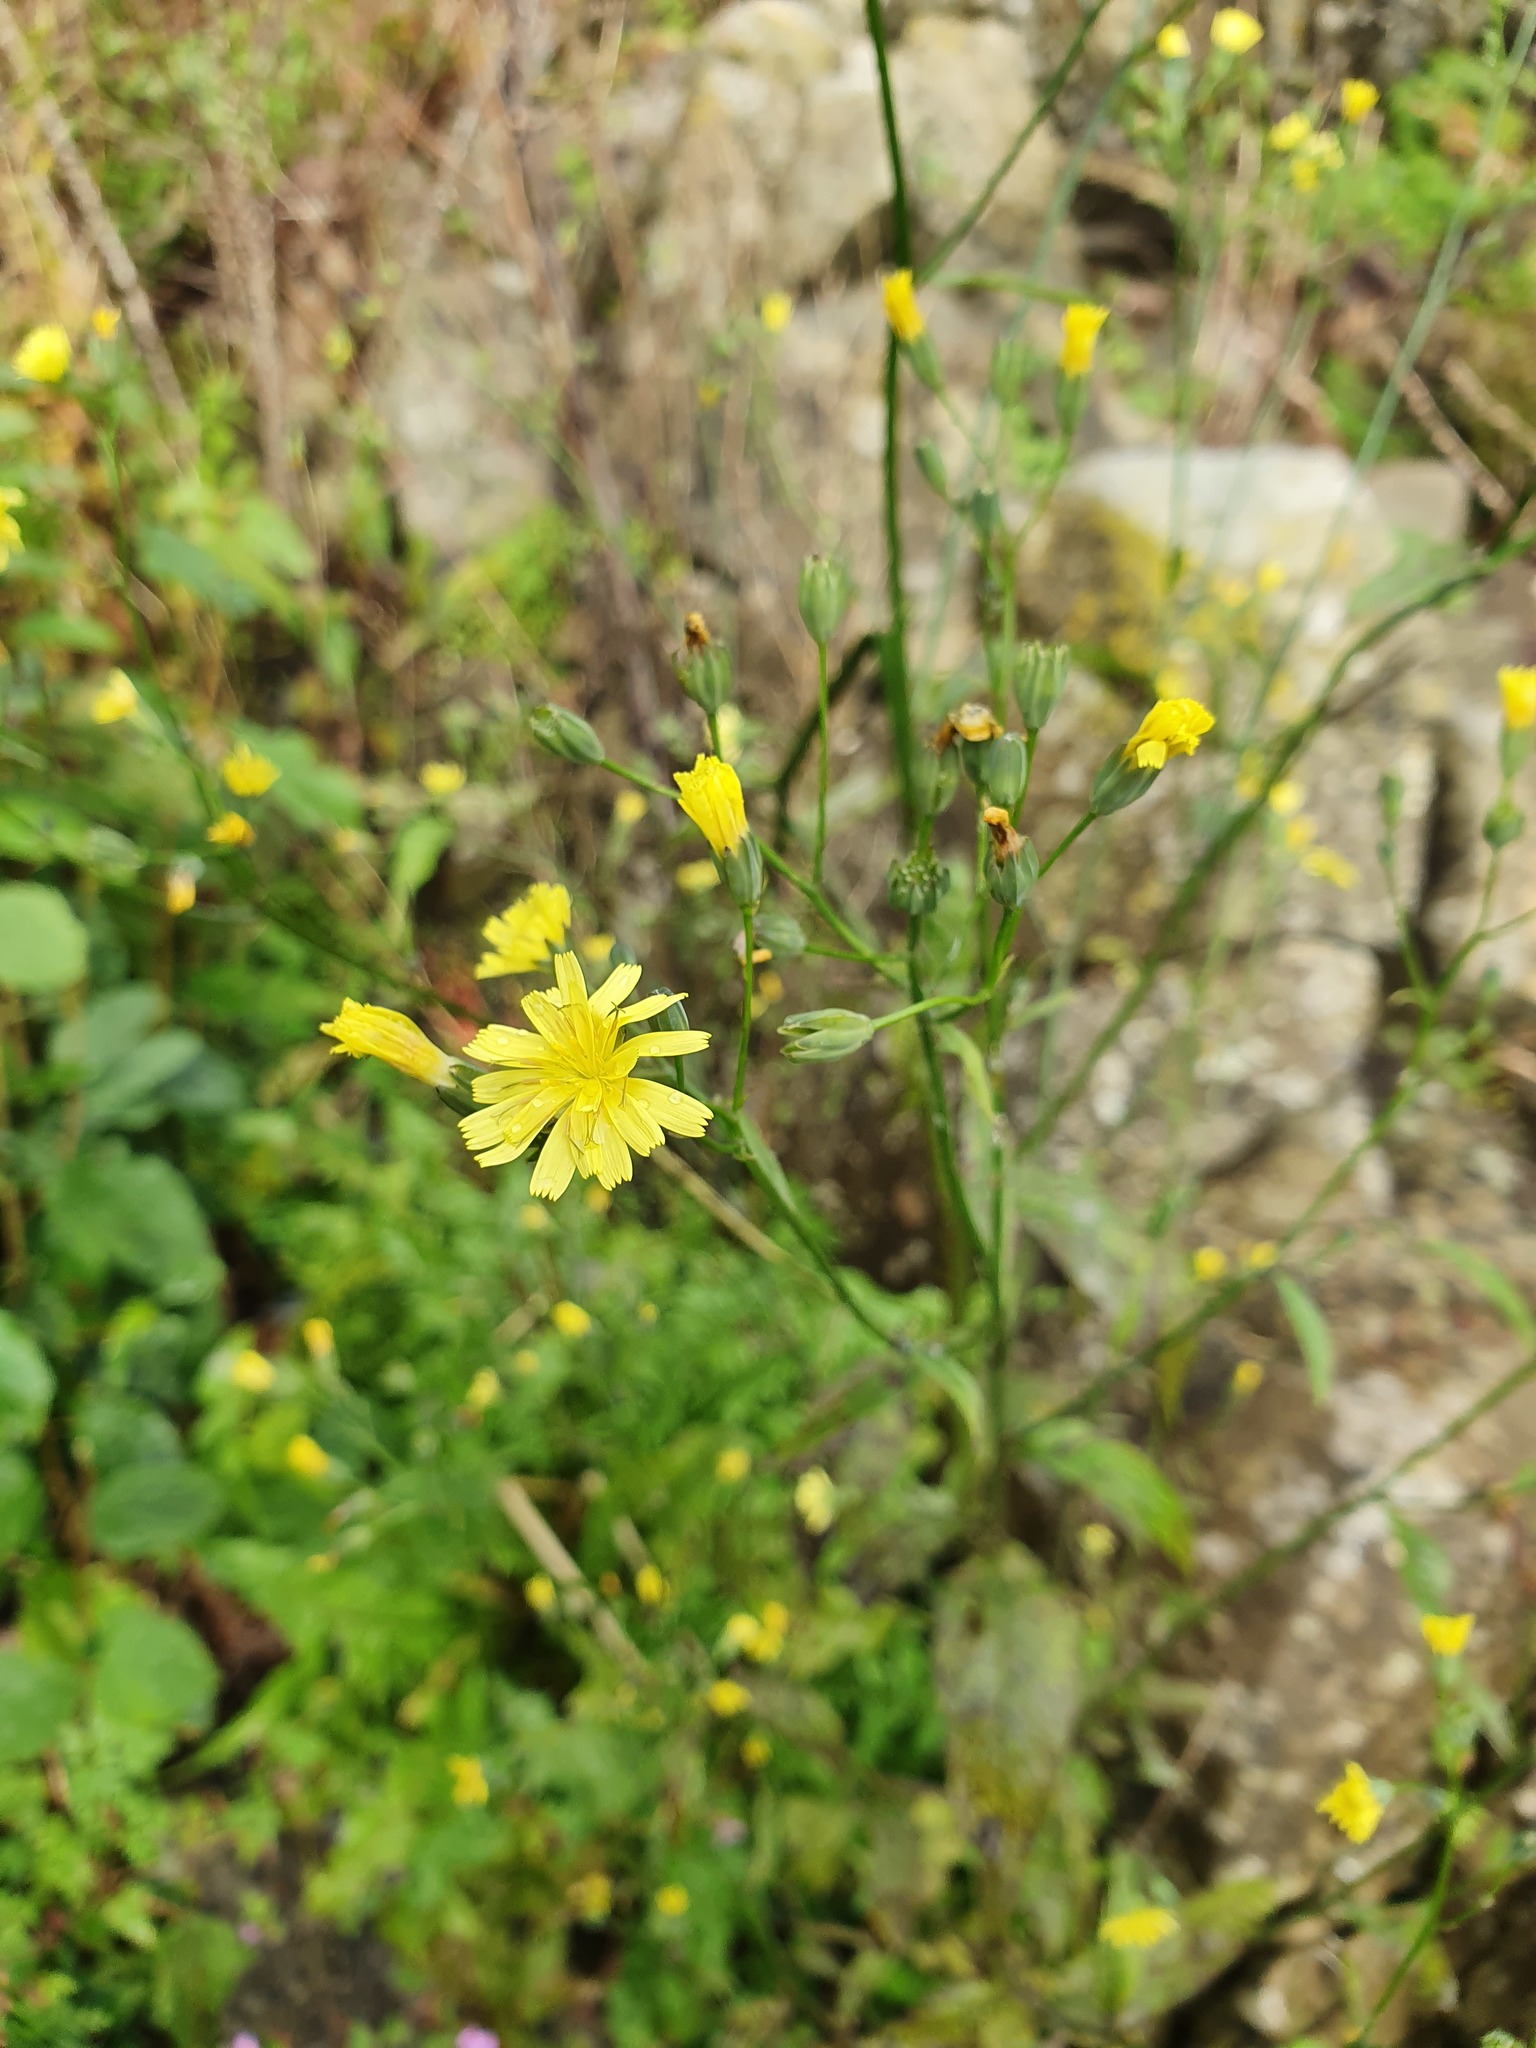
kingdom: Plantae
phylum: Tracheophyta
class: Magnoliopsida
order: Asterales
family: Asteraceae
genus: Lapsana
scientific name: Lapsana communis
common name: Nipplewort
